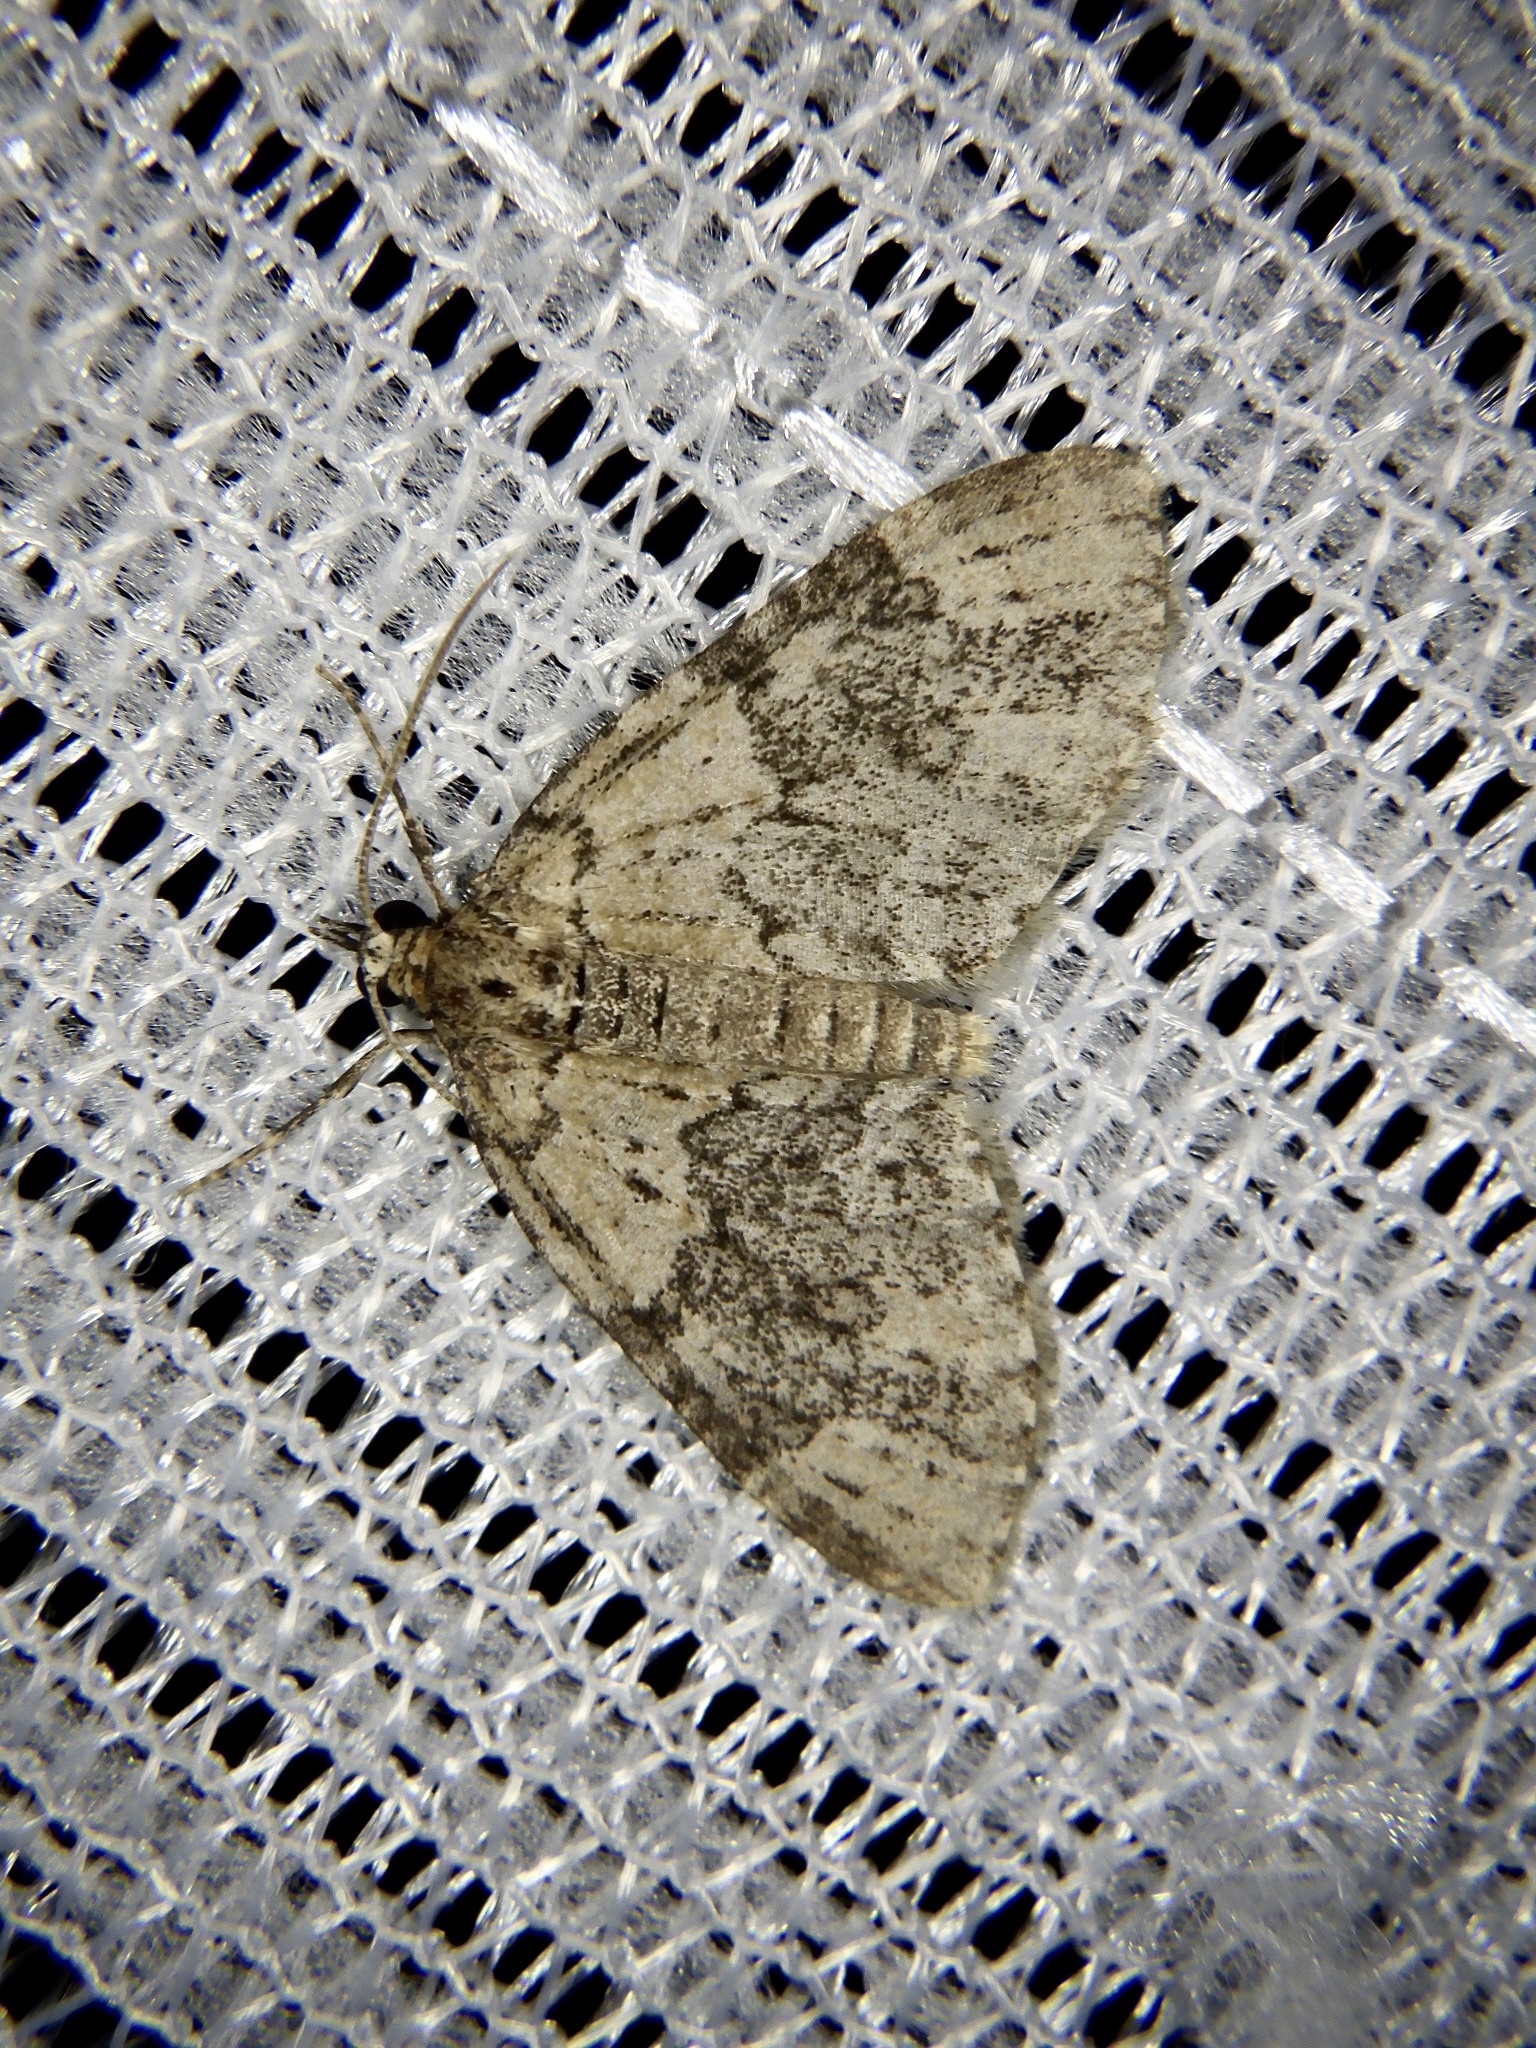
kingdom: Animalia
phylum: Arthropoda
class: Insecta
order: Lepidoptera
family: Geometridae
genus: Acasis
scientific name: Acasis viretata
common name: Yellow-barred brindle
